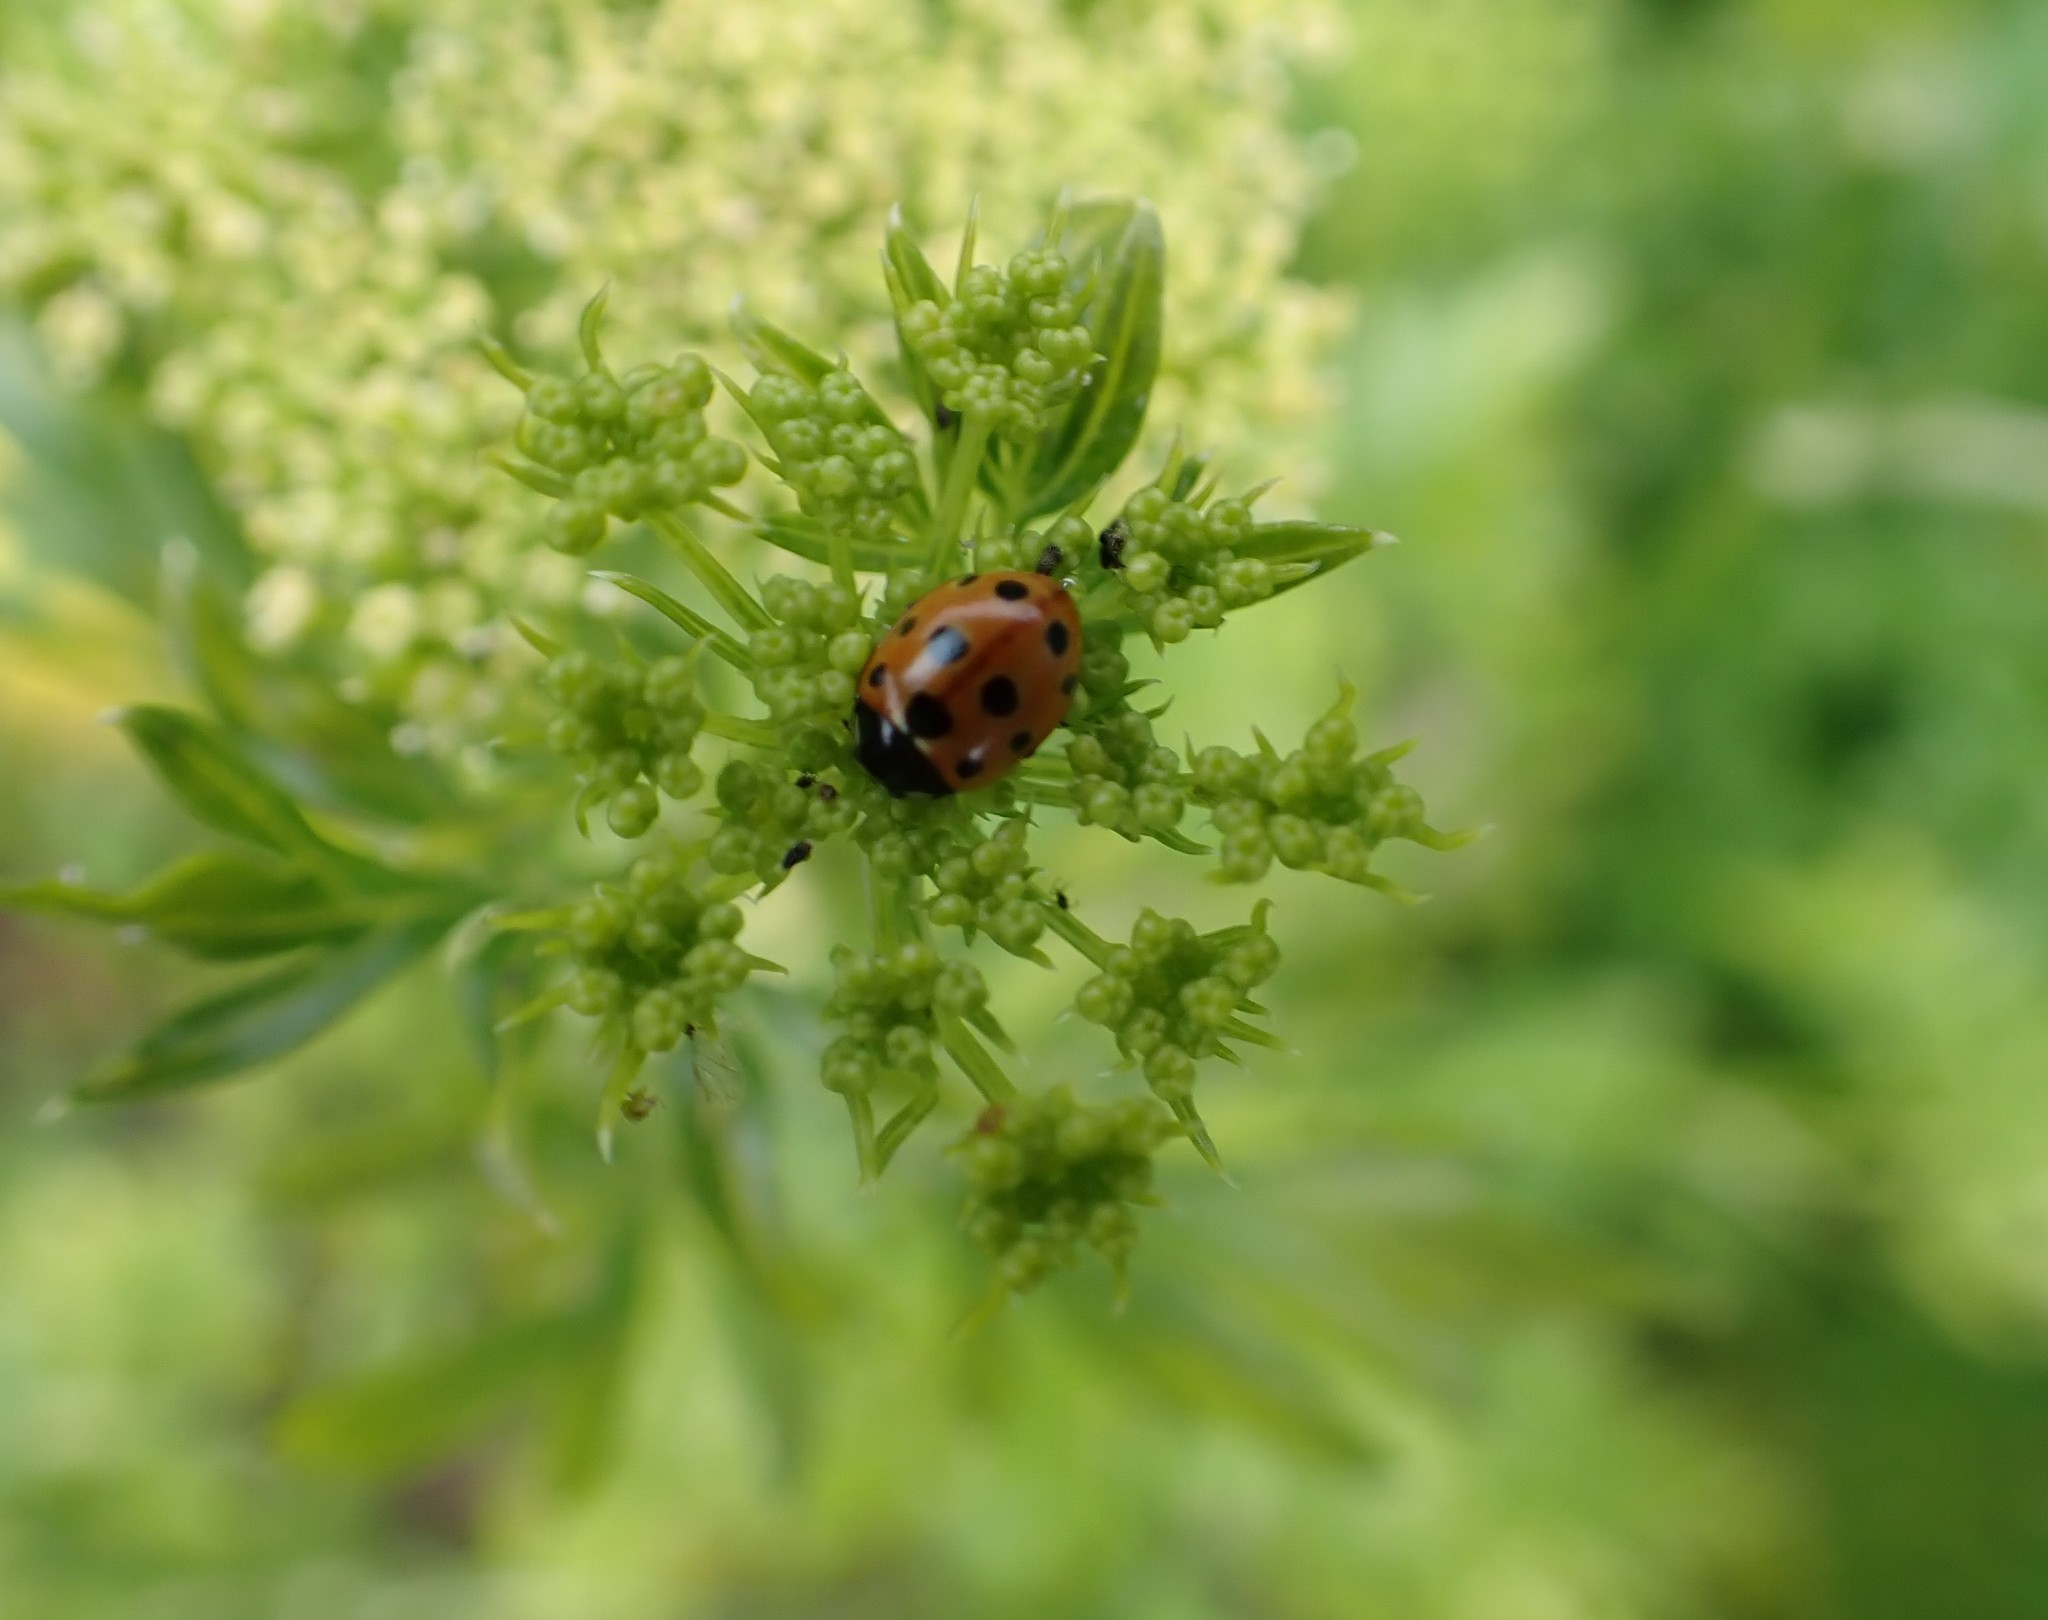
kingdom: Animalia
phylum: Arthropoda
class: Insecta
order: Coleoptera
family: Coccinellidae
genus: Coccinella
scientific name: Coccinella undecimpunctata
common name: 11-spot ladybird
